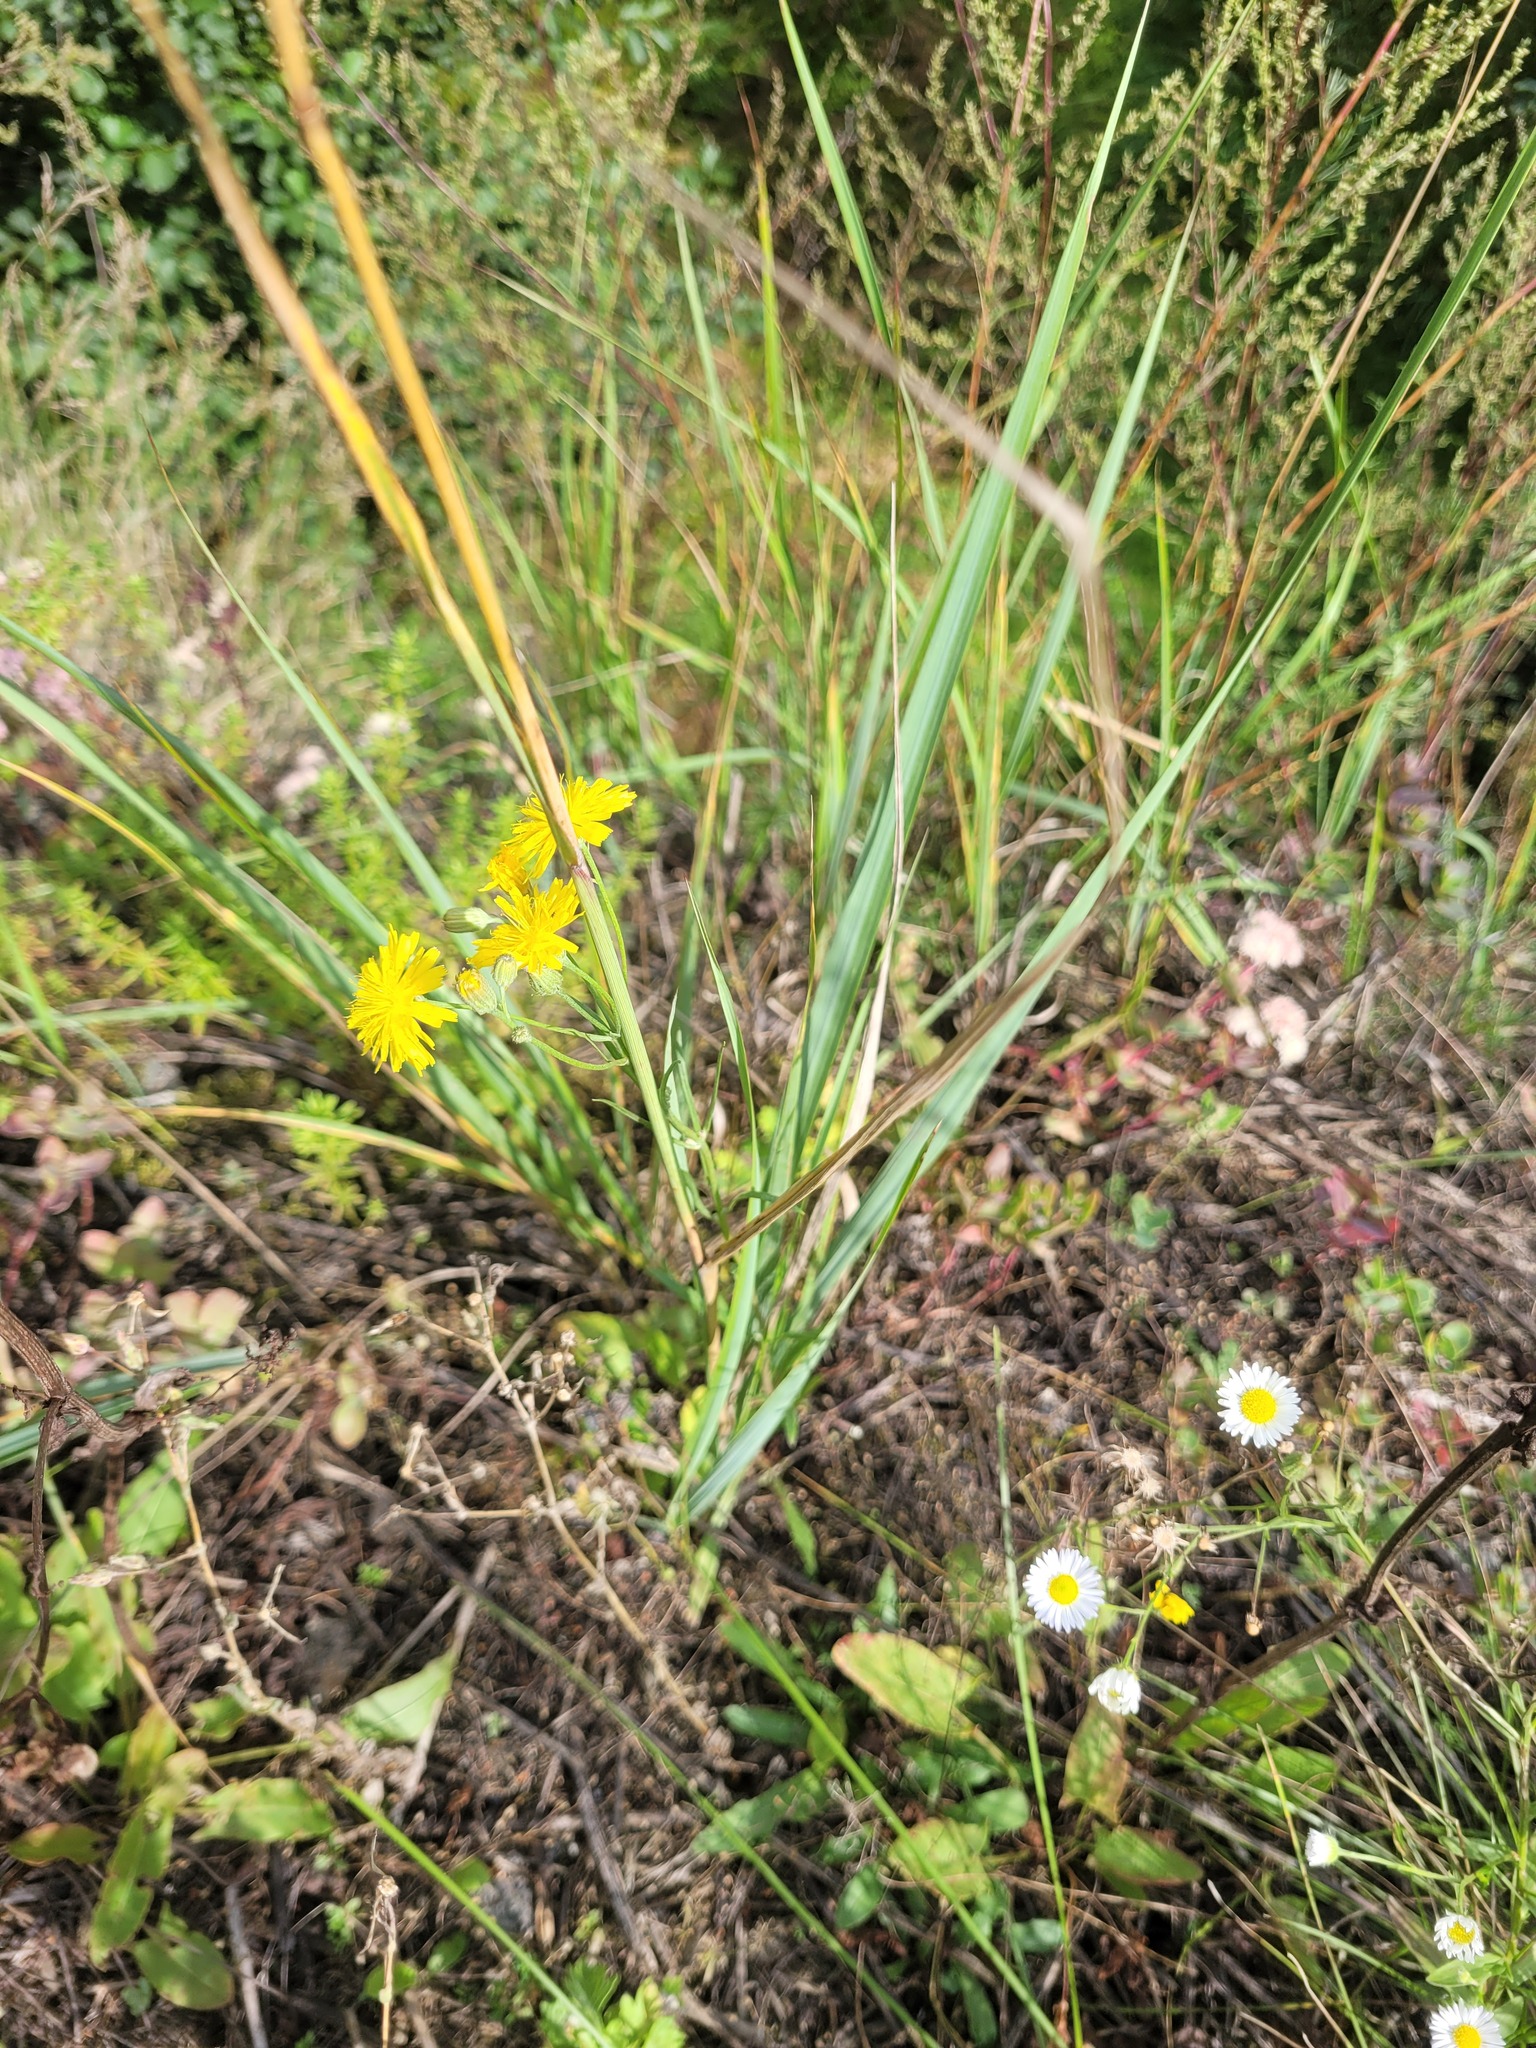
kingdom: Plantae
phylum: Tracheophyta
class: Magnoliopsida
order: Asterales
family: Asteraceae
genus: Crepis
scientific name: Crepis tectorum
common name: Narrow-leaved hawk's-beard
